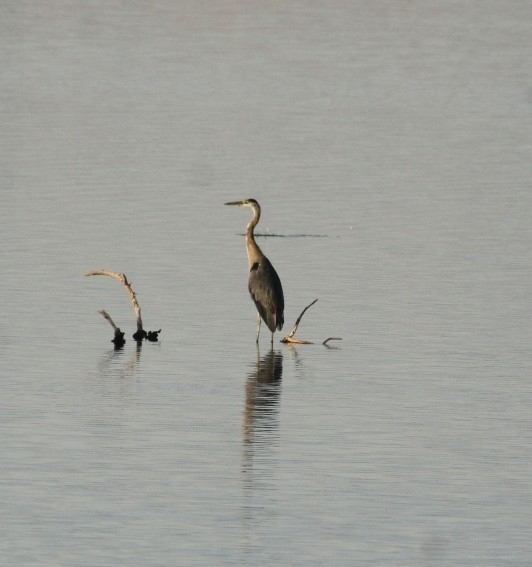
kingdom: Animalia
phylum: Chordata
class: Aves
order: Pelecaniformes
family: Ardeidae
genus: Ardea
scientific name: Ardea herodias
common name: Great blue heron
